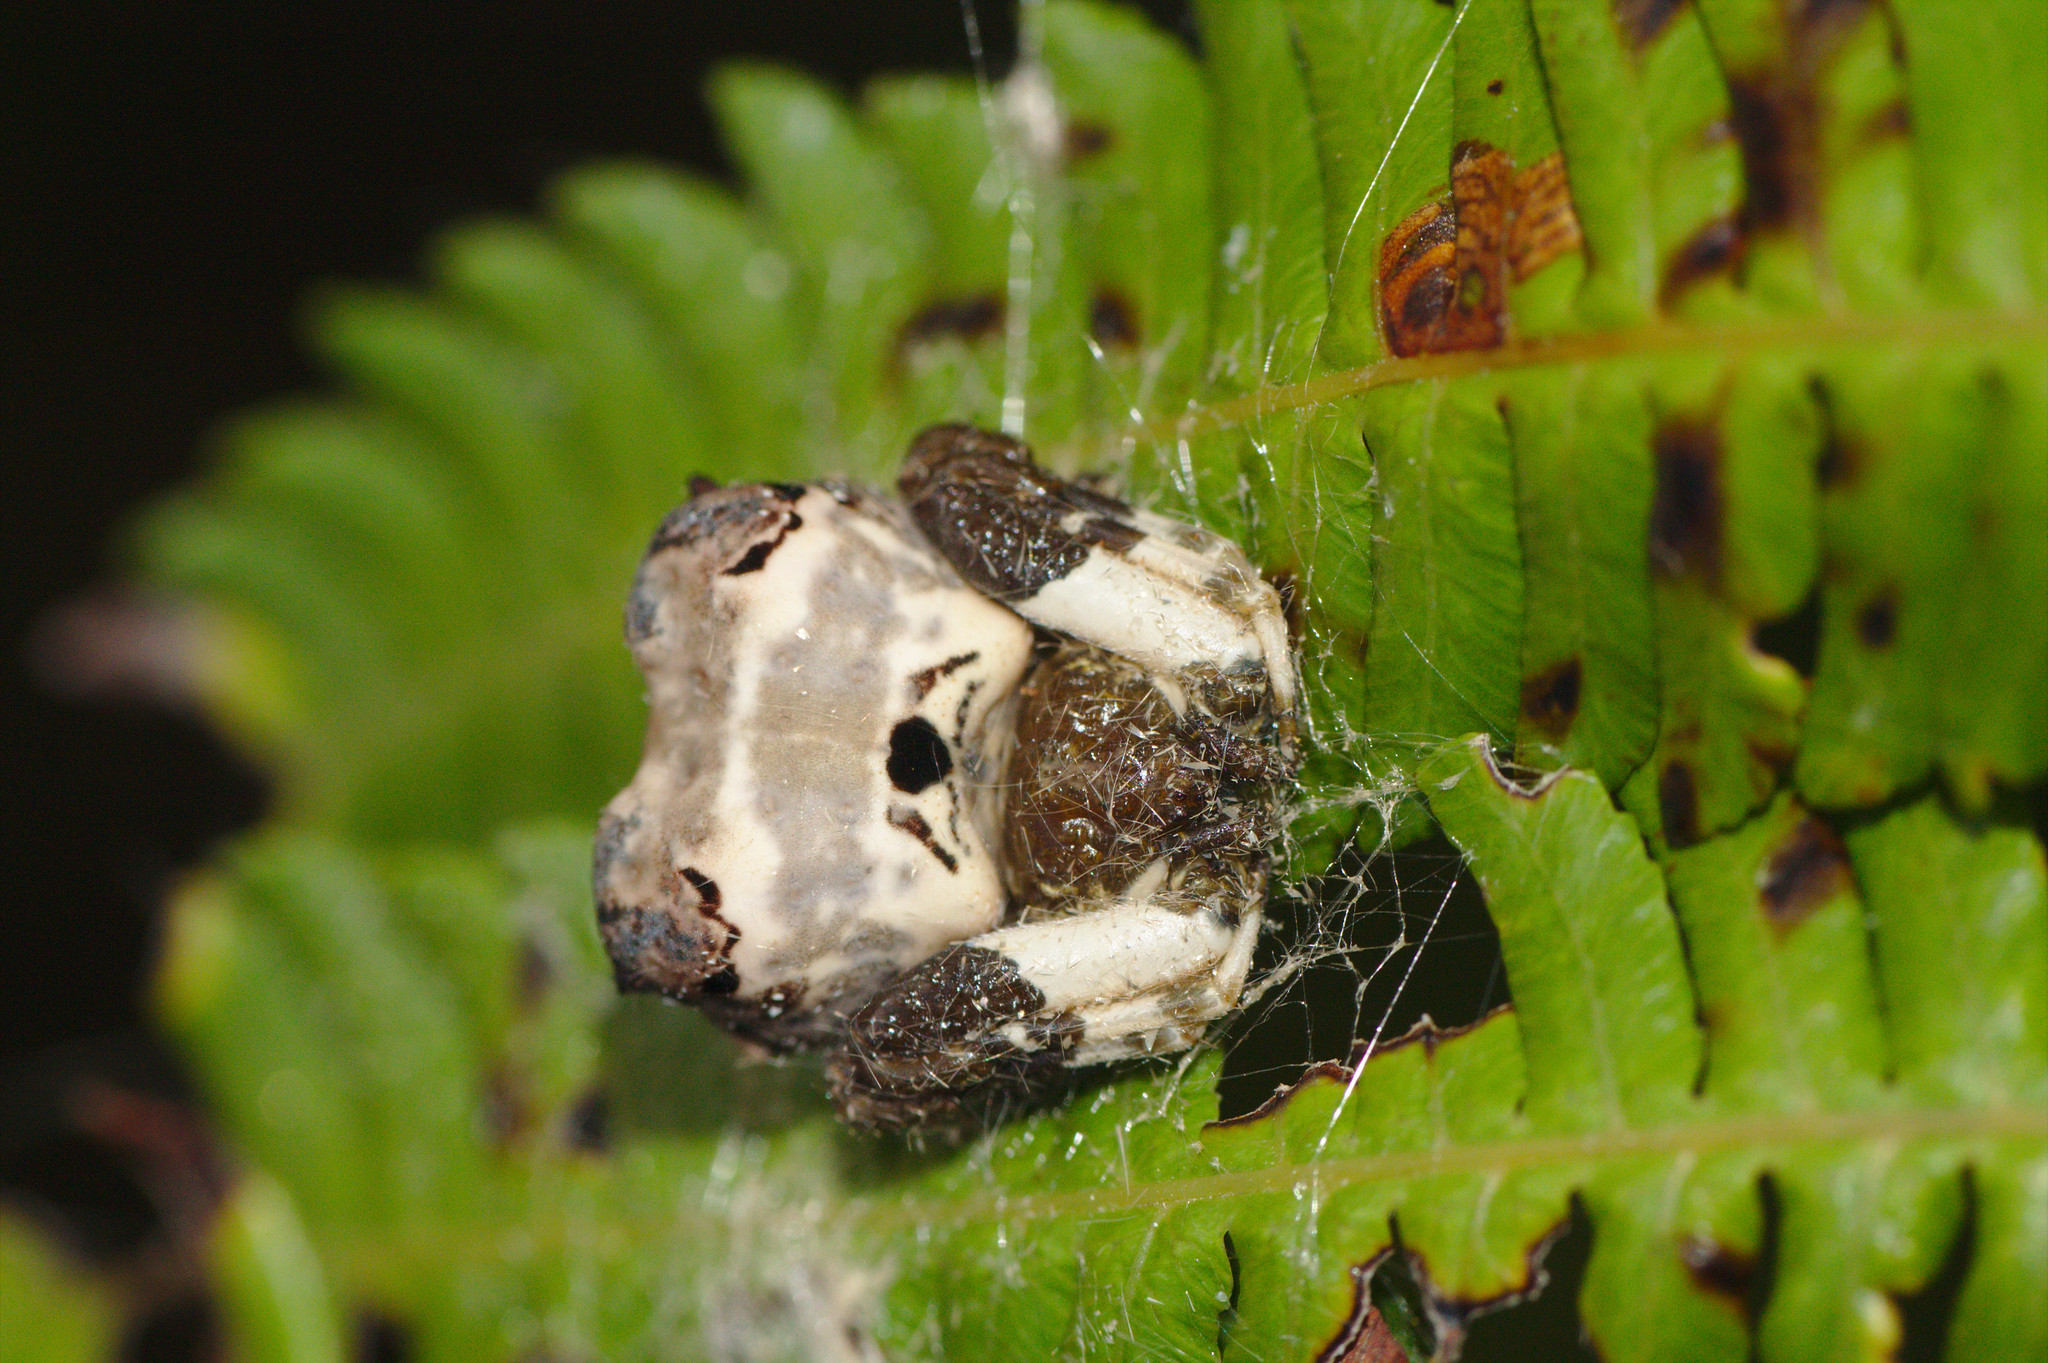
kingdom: Animalia
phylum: Arthropoda
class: Arachnida
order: Araneae
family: Araneidae
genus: Celaenia
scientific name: Celaenia excavata
